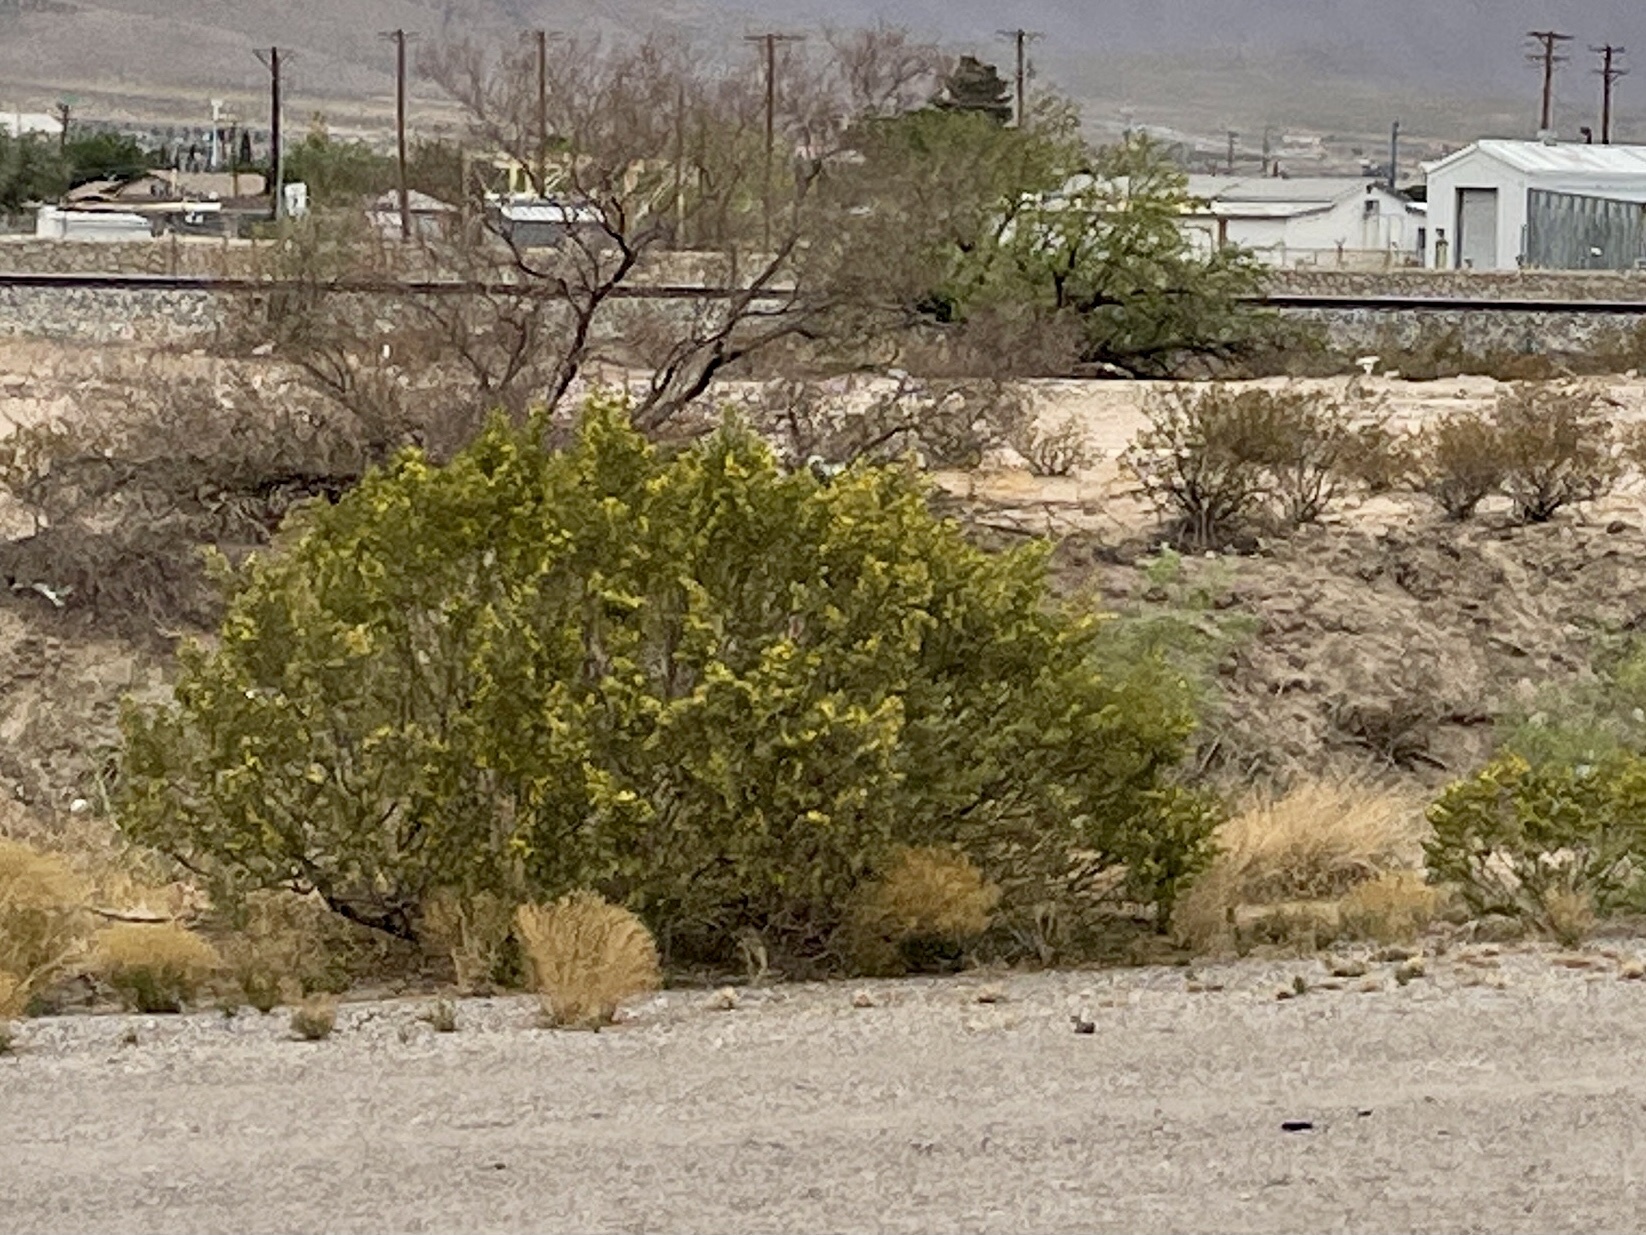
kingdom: Plantae
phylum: Tracheophyta
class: Magnoliopsida
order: Zygophyllales
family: Zygophyllaceae
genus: Larrea
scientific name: Larrea tridentata
